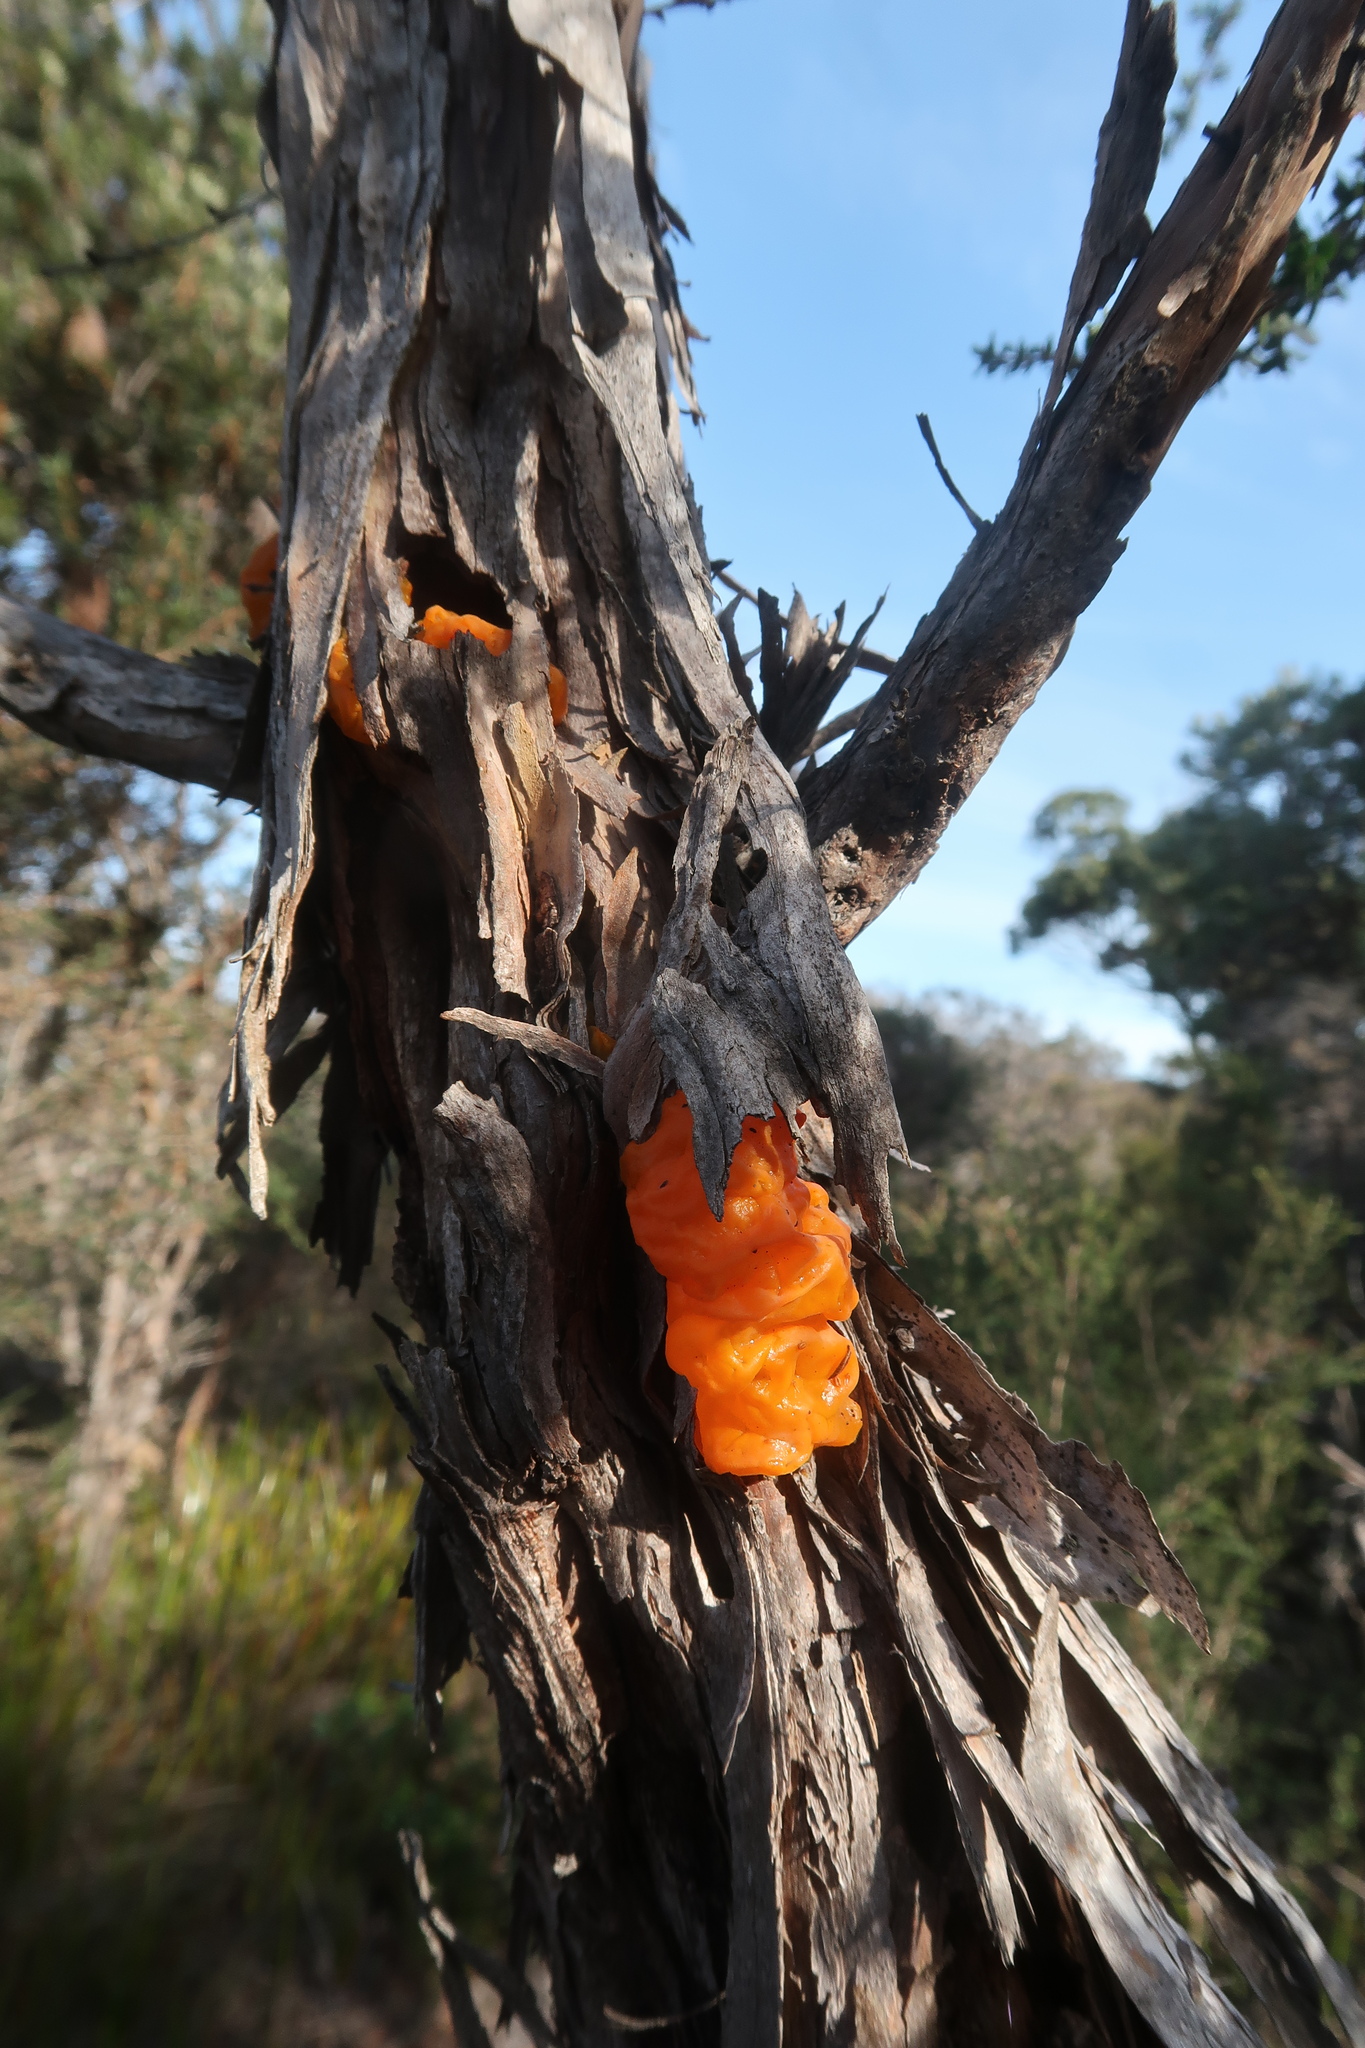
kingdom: Fungi
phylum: Basidiomycota
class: Tremellomycetes
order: Tremellales
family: Tremellaceae
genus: Tremella
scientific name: Tremella mesenterica
